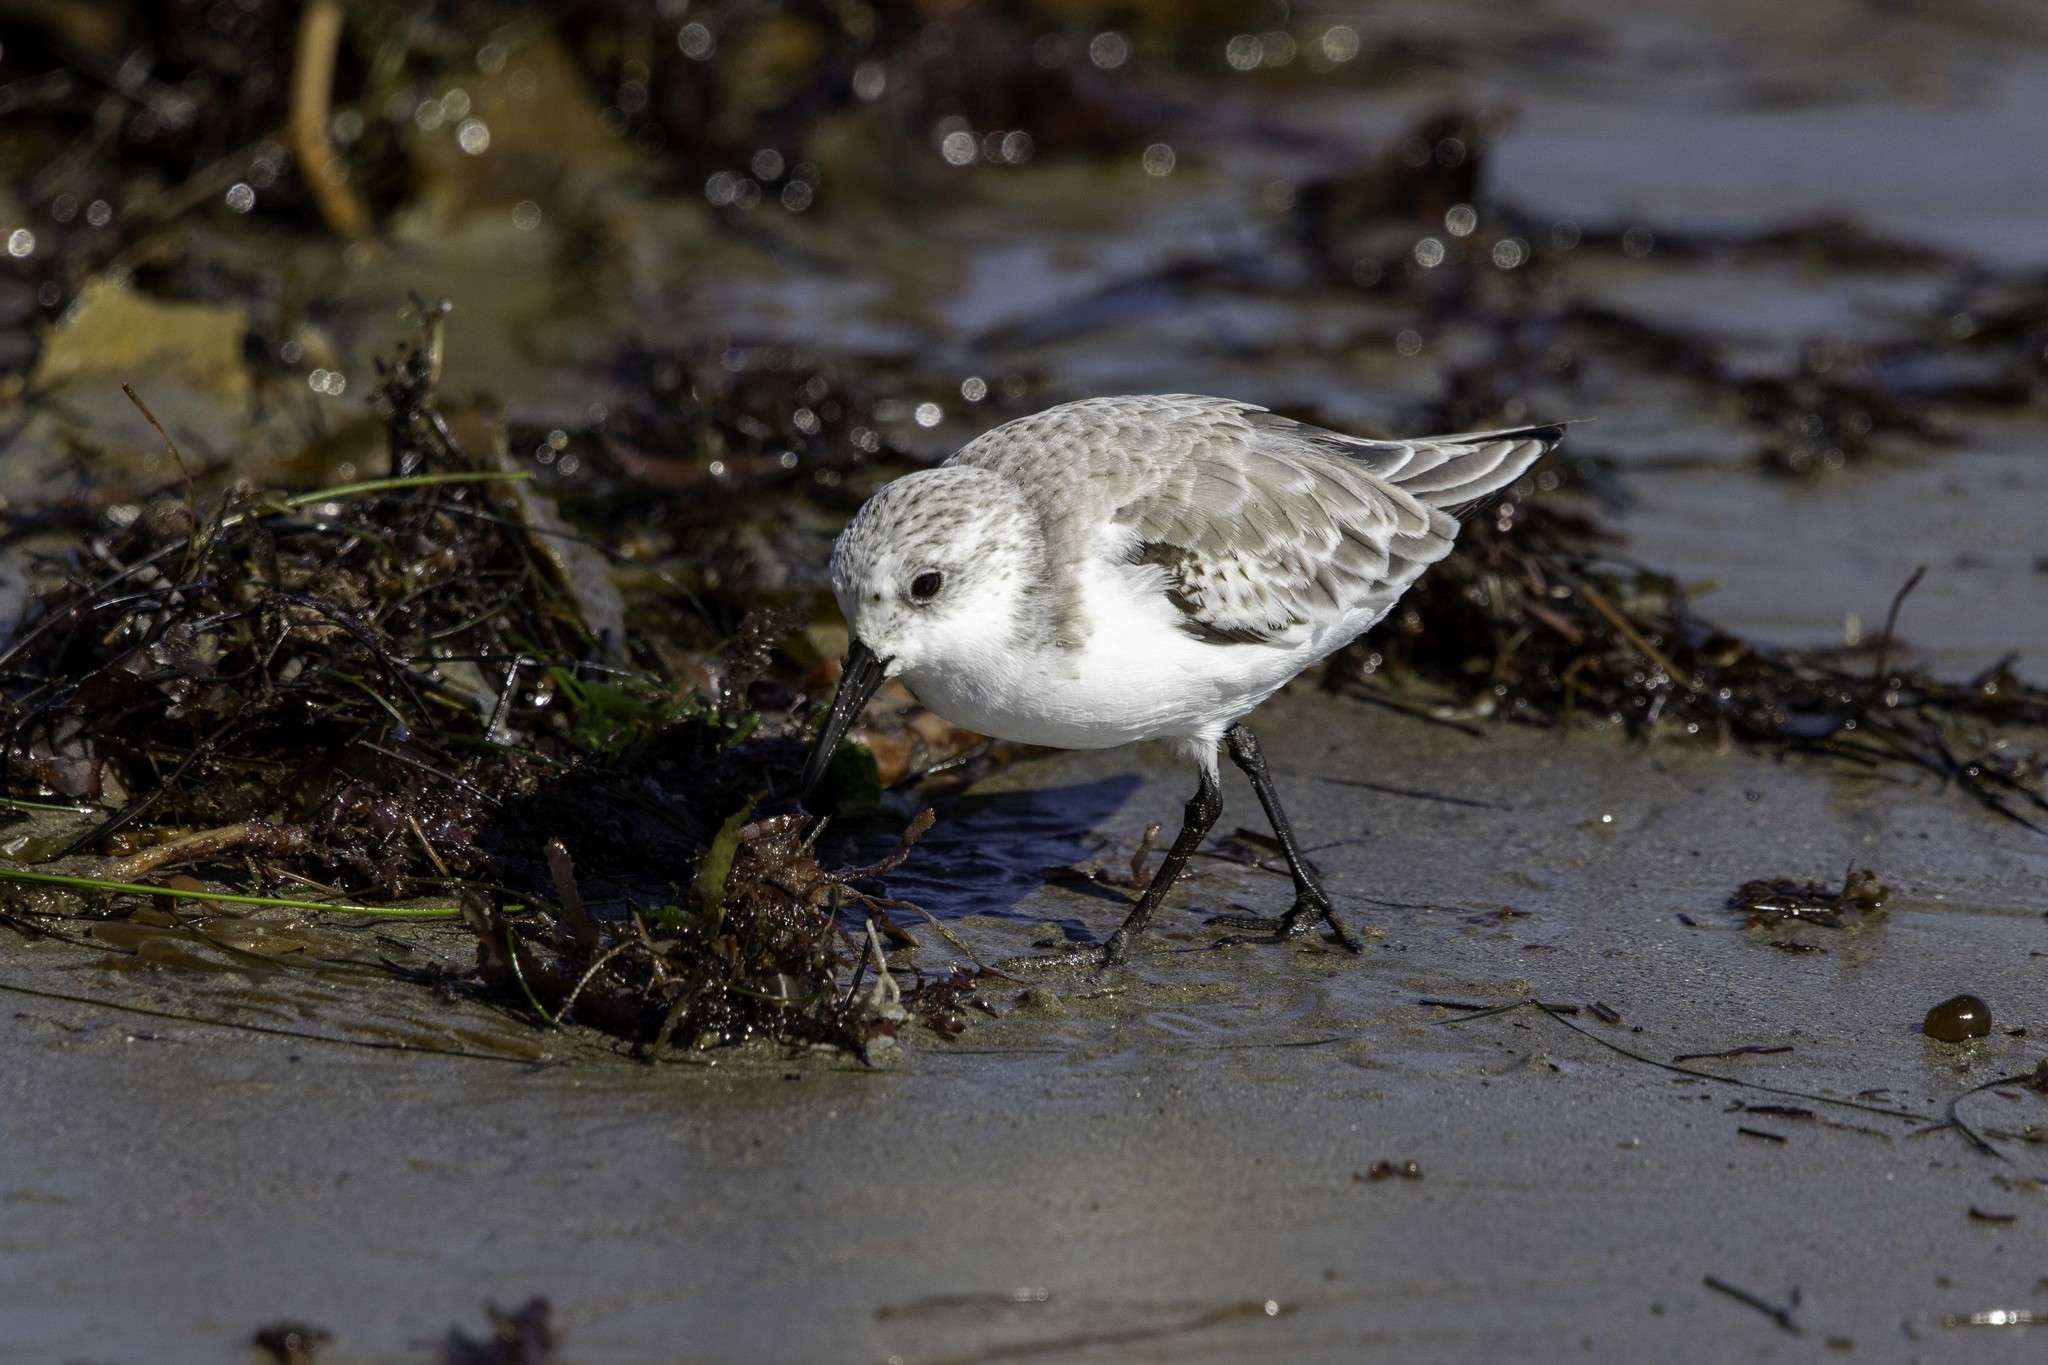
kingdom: Animalia
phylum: Chordata
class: Aves
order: Charadriiformes
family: Scolopacidae
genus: Calidris
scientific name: Calidris alba
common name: Sanderling
